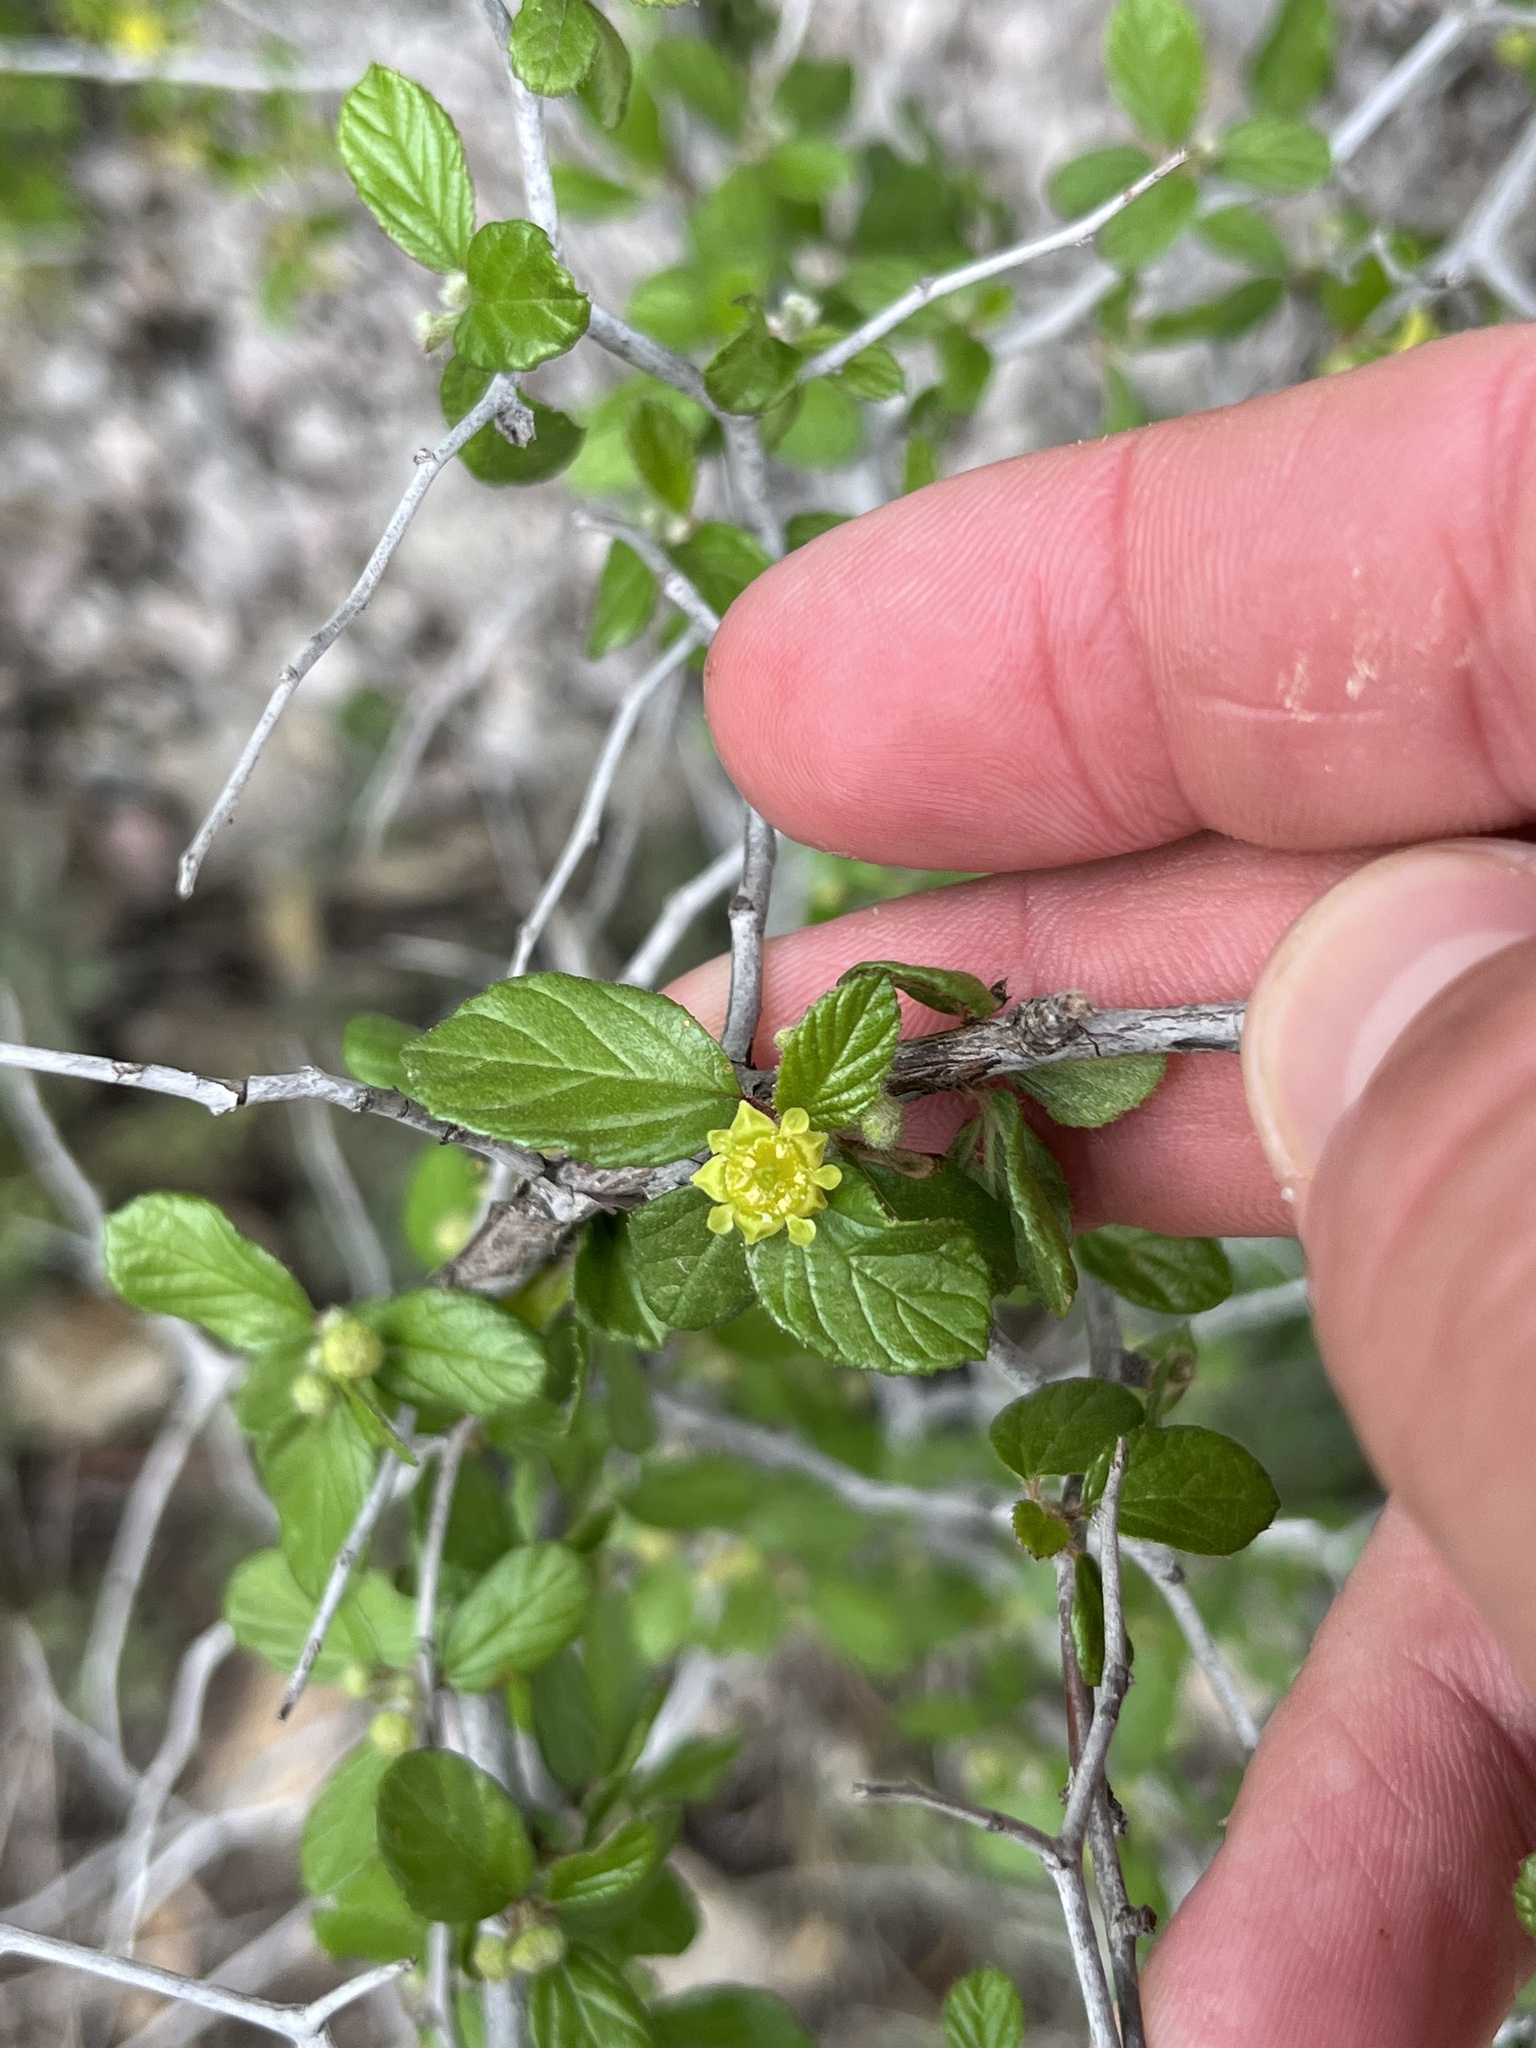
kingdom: Plantae
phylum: Tracheophyta
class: Magnoliopsida
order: Rosales
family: Rhamnaceae
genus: Colubrina
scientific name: Colubrina texensis
